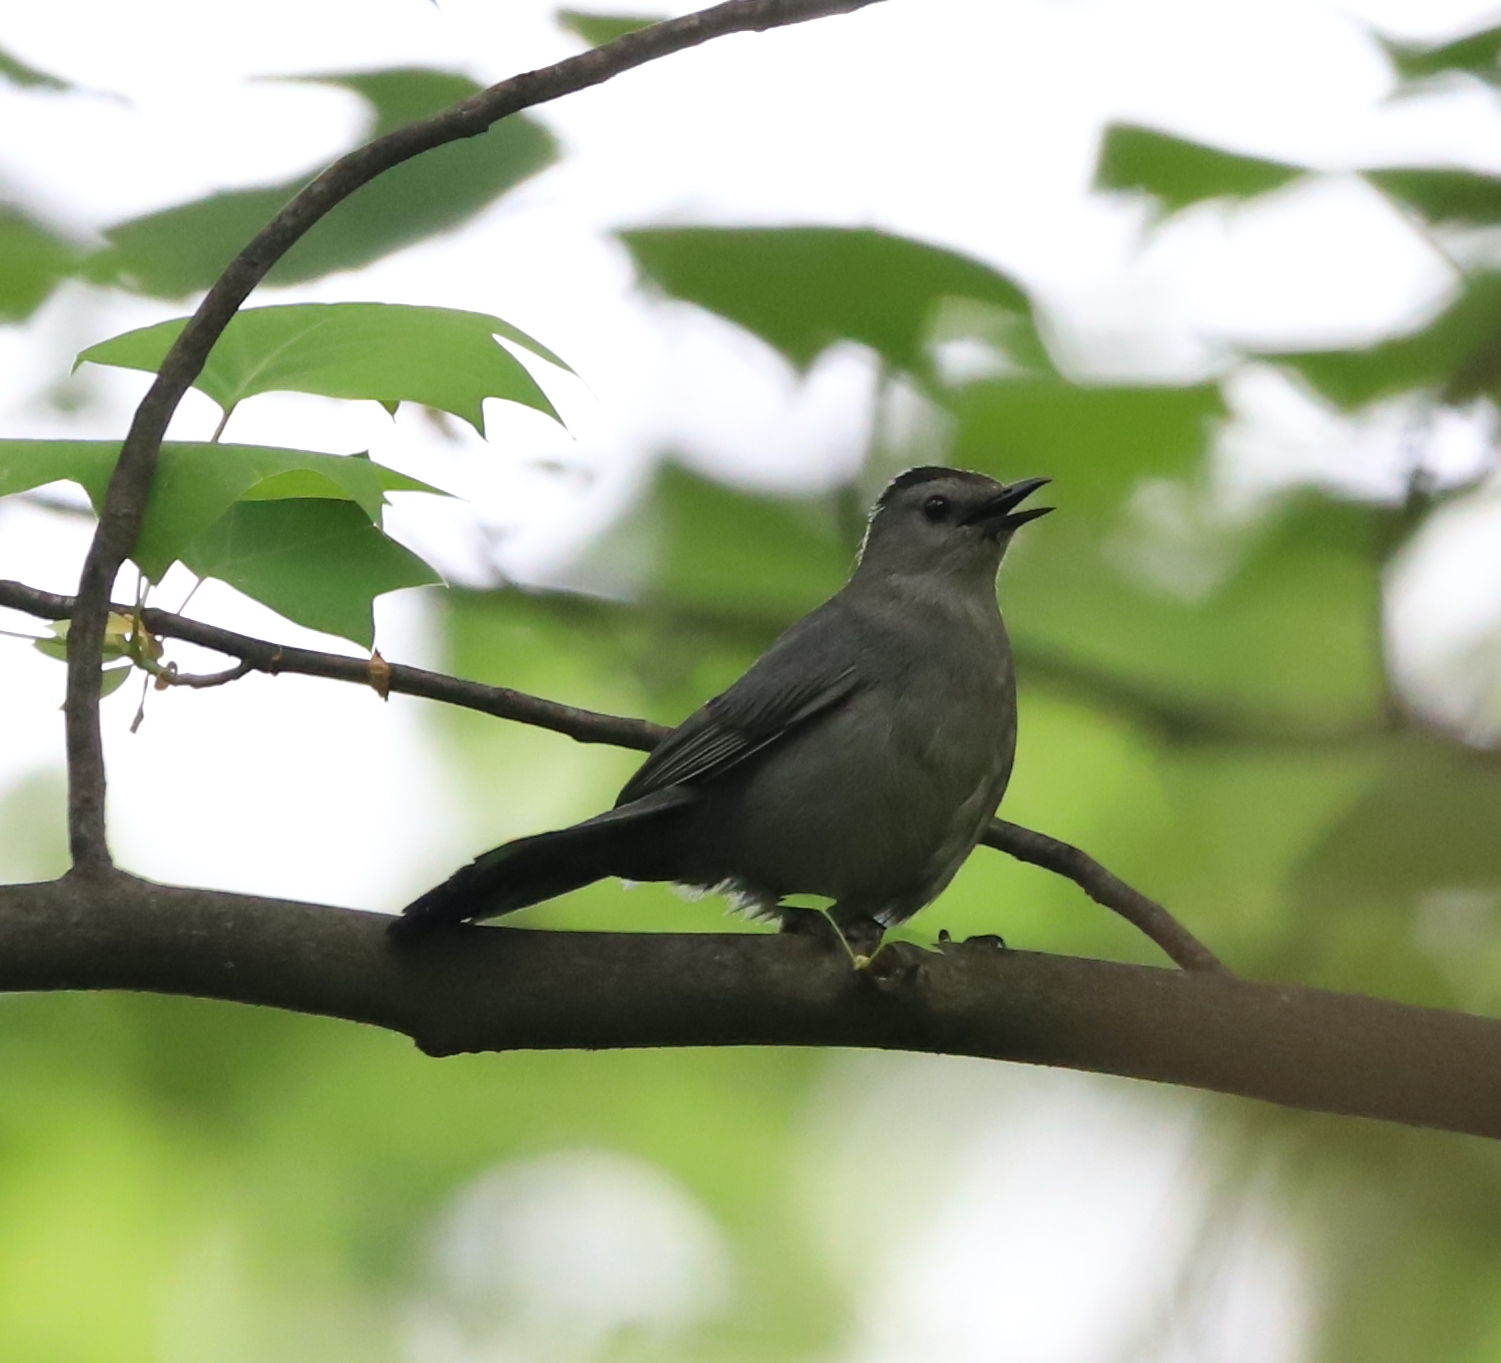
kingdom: Animalia
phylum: Chordata
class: Aves
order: Passeriformes
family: Mimidae
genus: Dumetella
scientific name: Dumetella carolinensis
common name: Gray catbird
